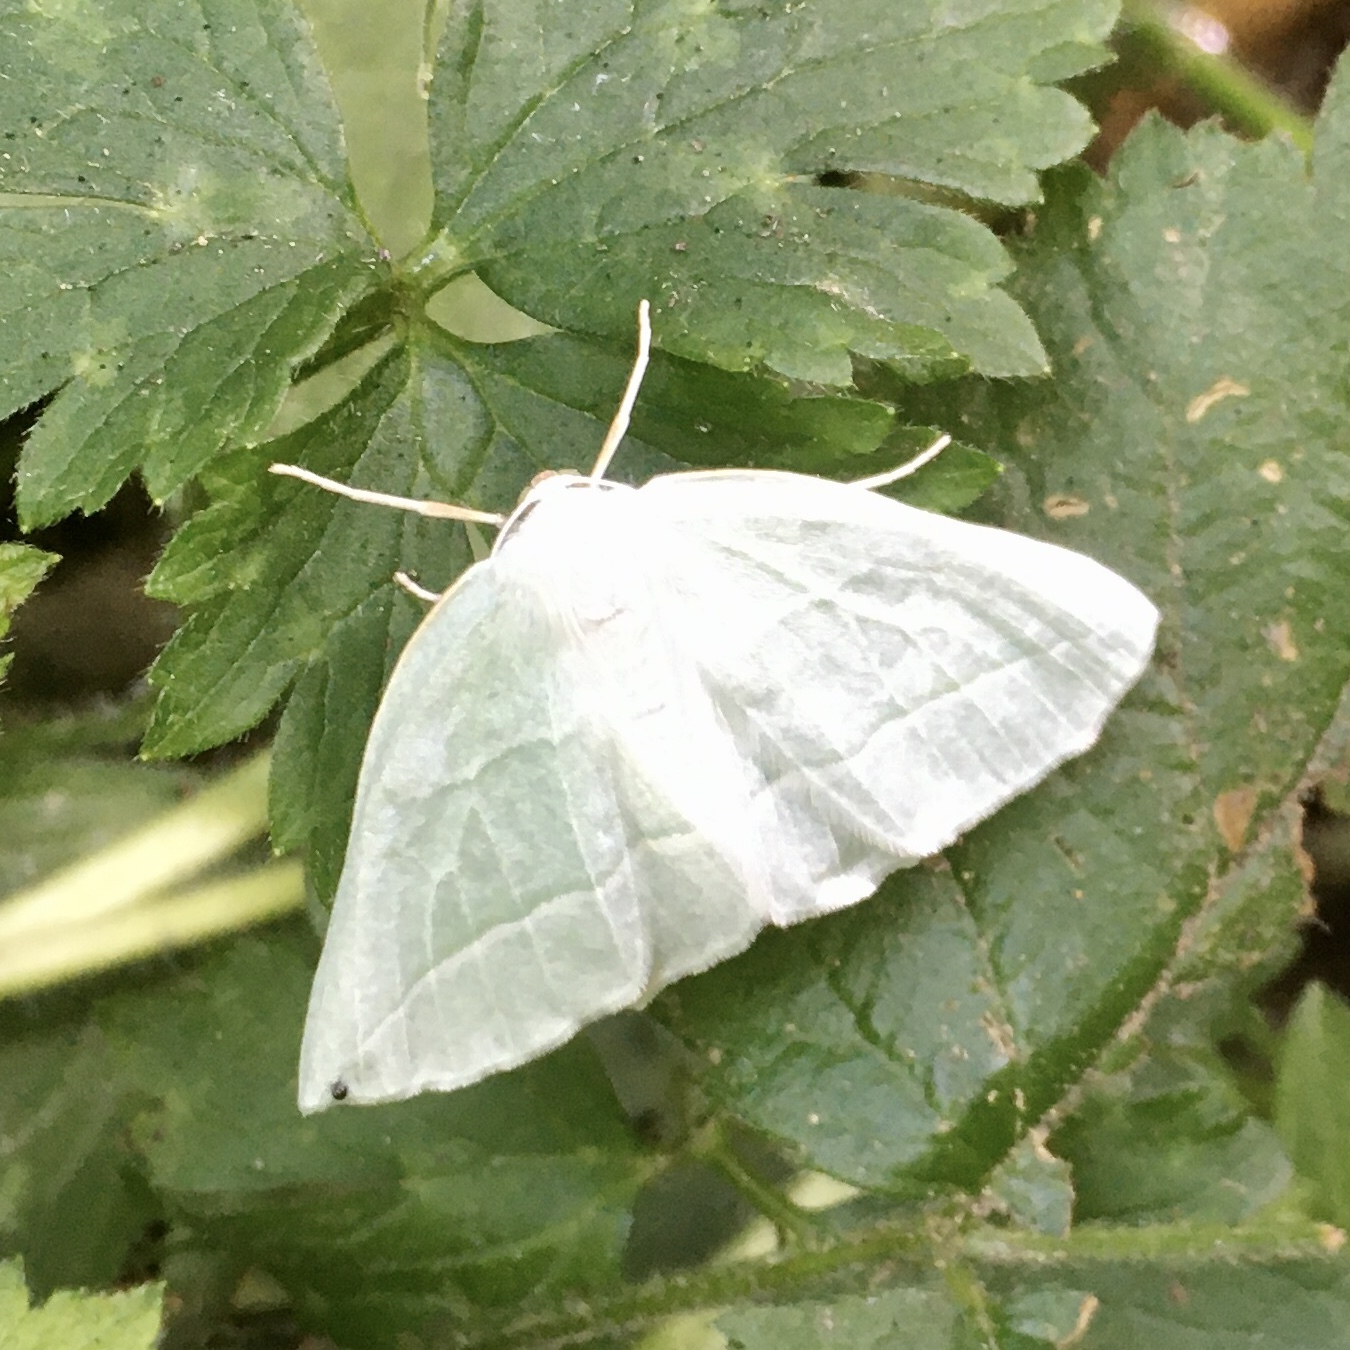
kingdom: Animalia
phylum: Arthropoda
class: Insecta
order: Lepidoptera
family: Geometridae
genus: Campaea
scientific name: Campaea perlata
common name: Fringed looper
